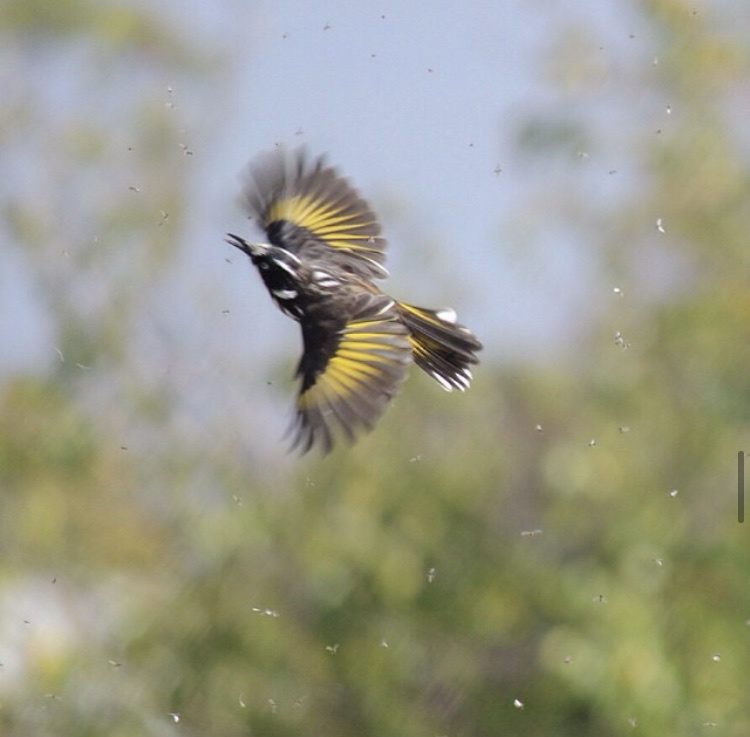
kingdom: Animalia
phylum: Chordata
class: Aves
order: Passeriformes
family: Meliphagidae
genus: Phylidonyris
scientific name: Phylidonyris novaehollandiae
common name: New holland honeyeater
